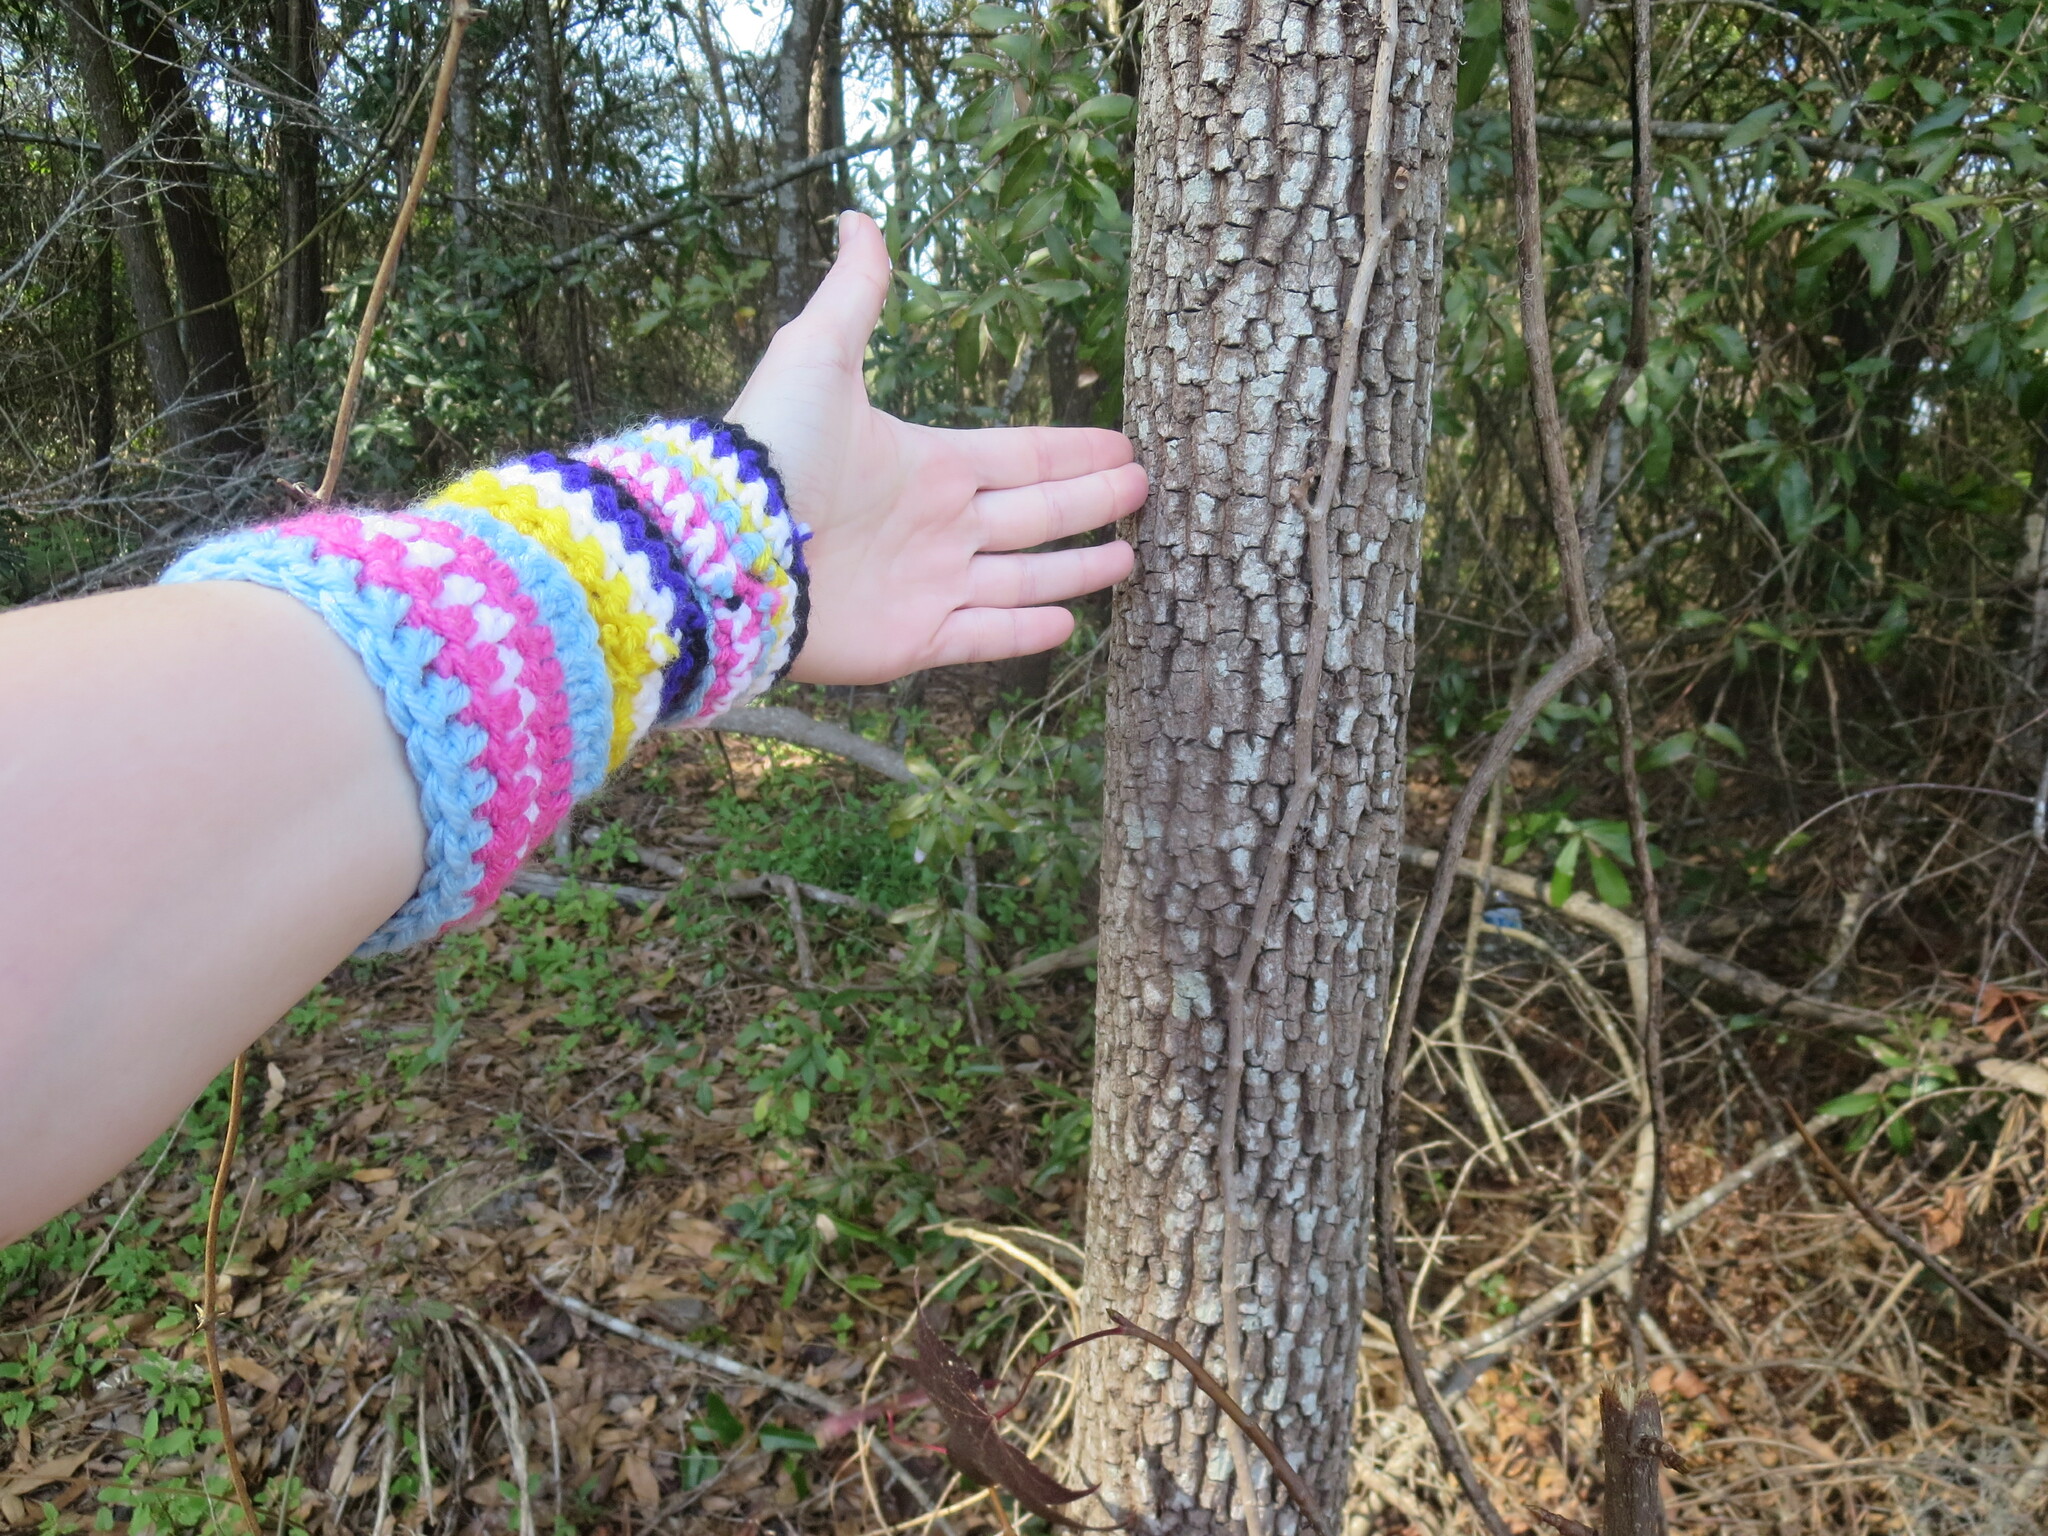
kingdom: Plantae
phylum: Tracheophyta
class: Magnoliopsida
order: Ericales
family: Ebenaceae
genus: Diospyros
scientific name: Diospyros virginiana
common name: Persimmon
